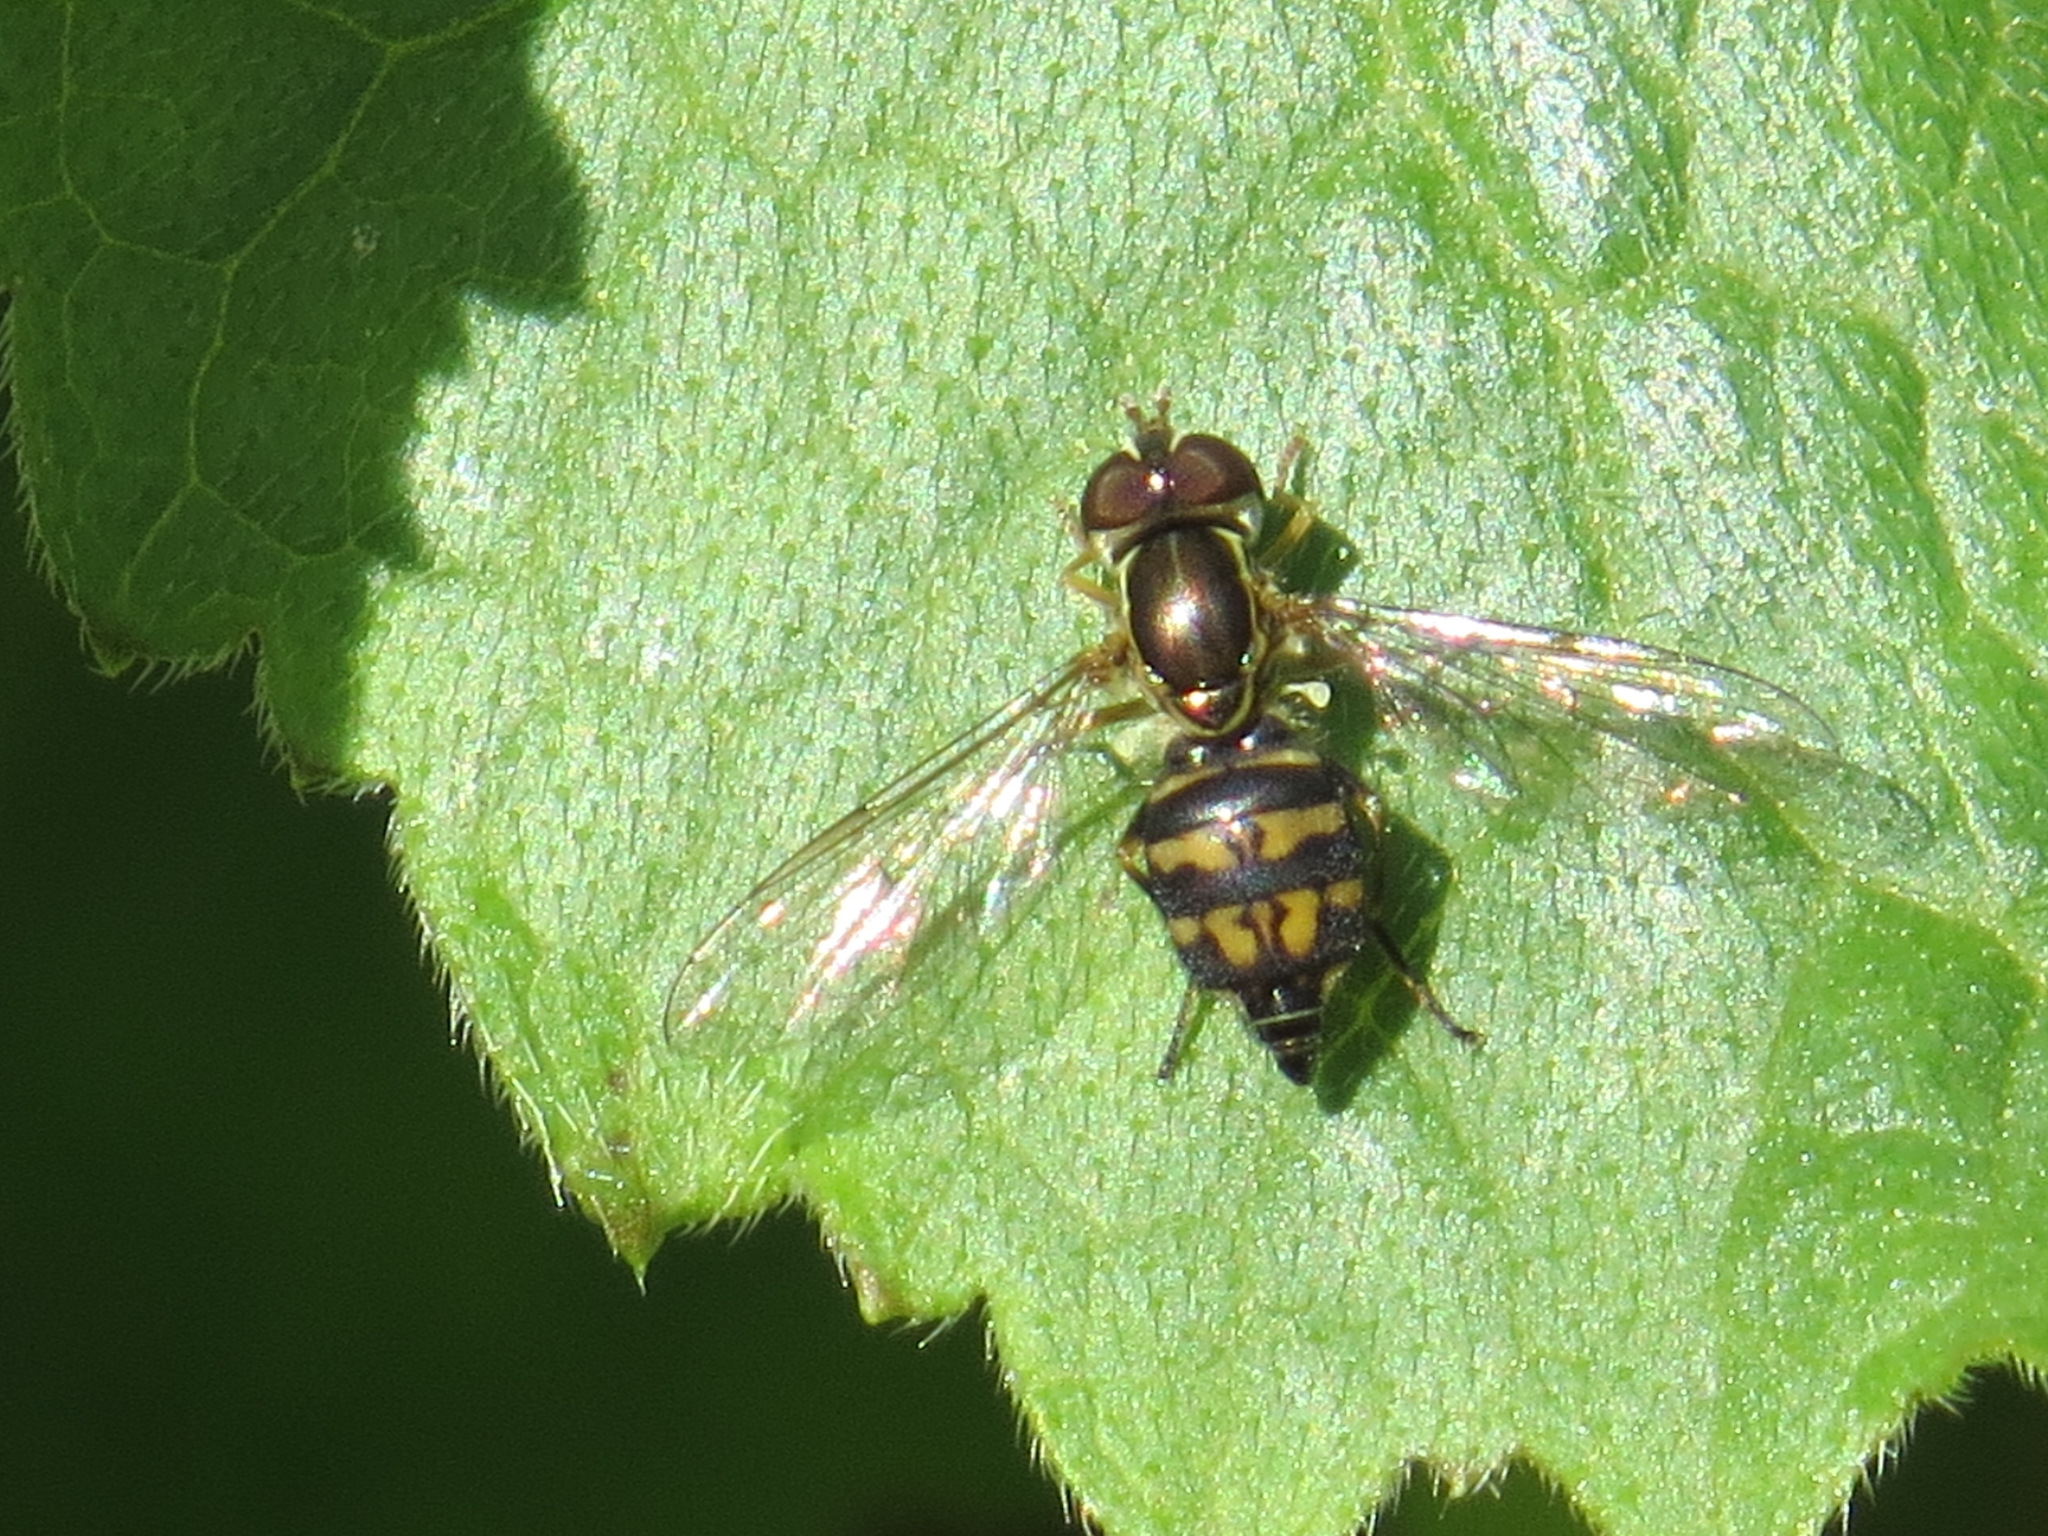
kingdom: Animalia
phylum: Arthropoda
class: Insecta
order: Diptera
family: Syrphidae
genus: Toxomerus
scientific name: Toxomerus occidentalis
